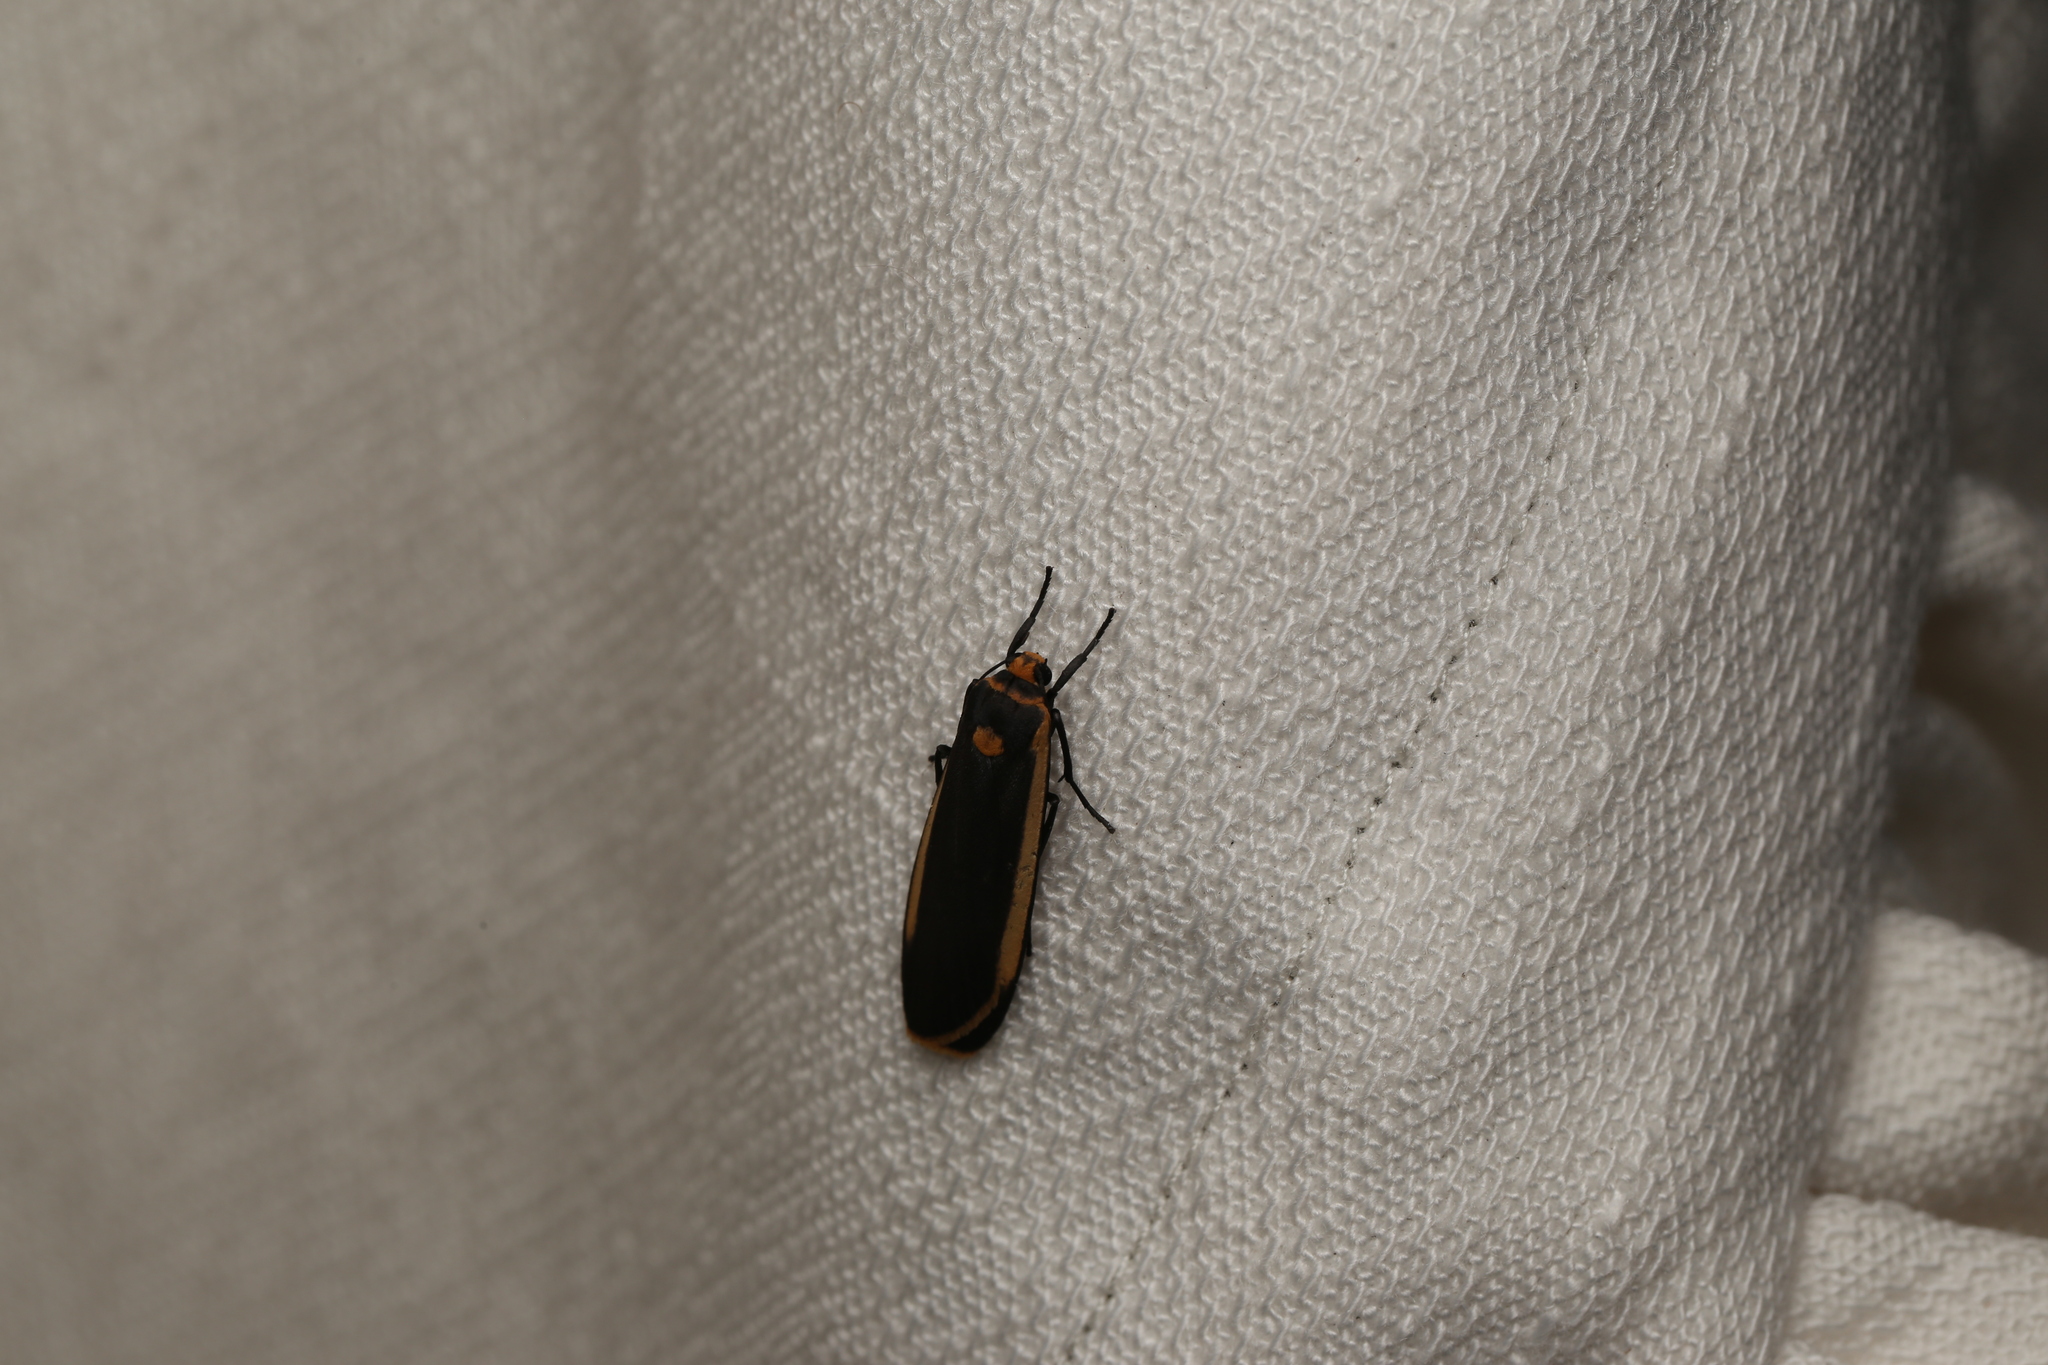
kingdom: Animalia
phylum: Arthropoda
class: Insecta
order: Lepidoptera
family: Erebidae
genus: Brunia
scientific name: Brunia replana
